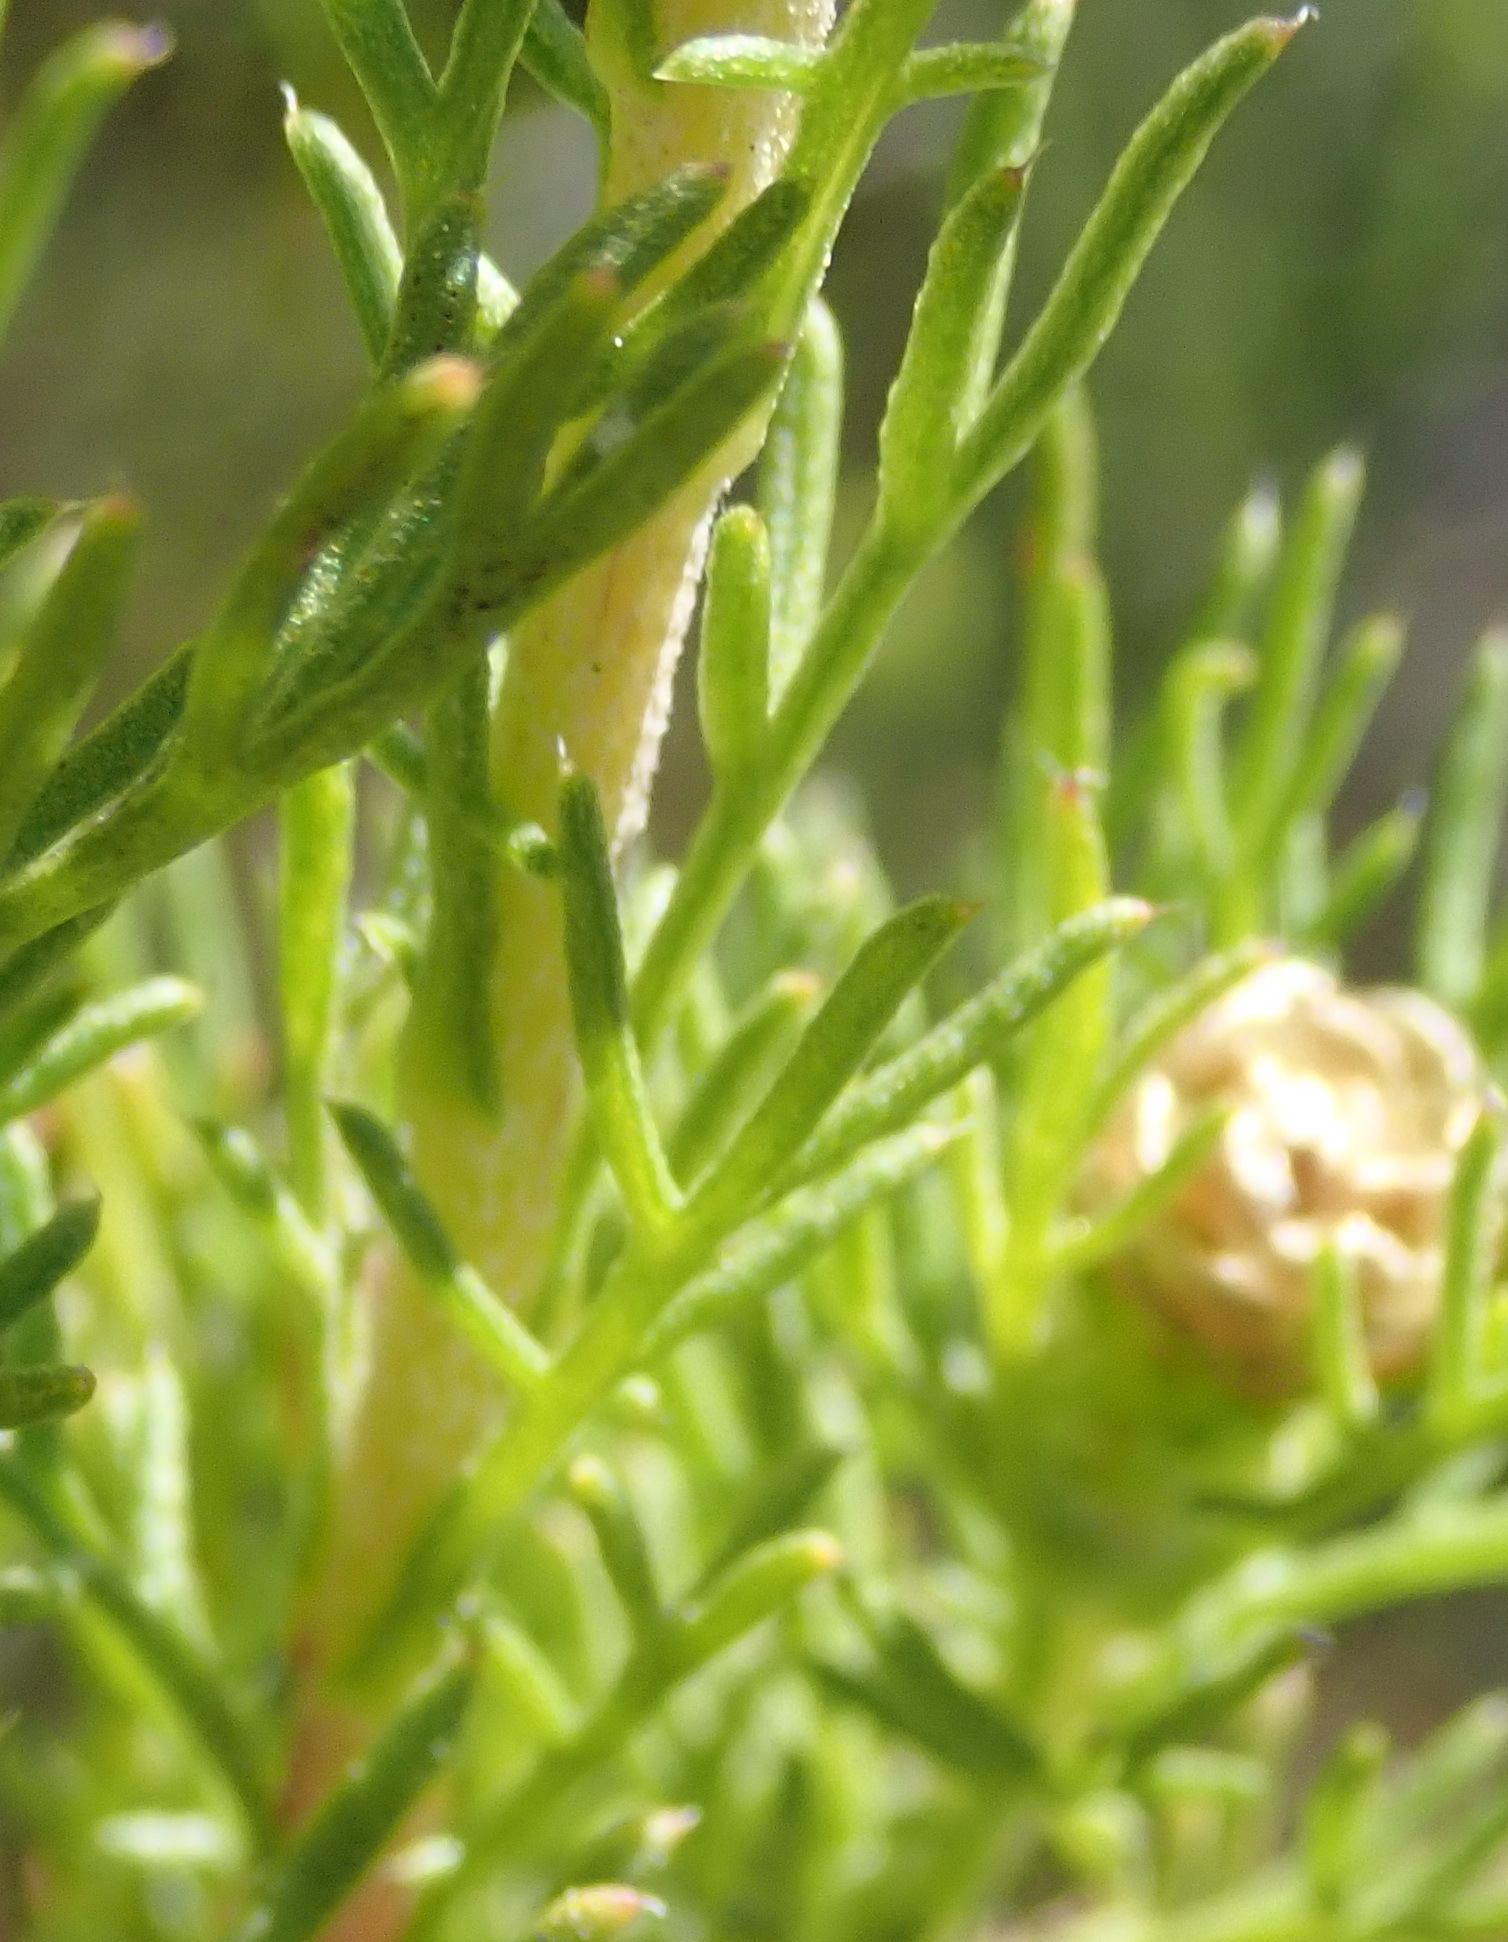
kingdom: Plantae
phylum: Tracheophyta
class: Magnoliopsida
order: Asterales
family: Asteraceae
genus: Ursinia
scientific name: Ursinia scariosa
